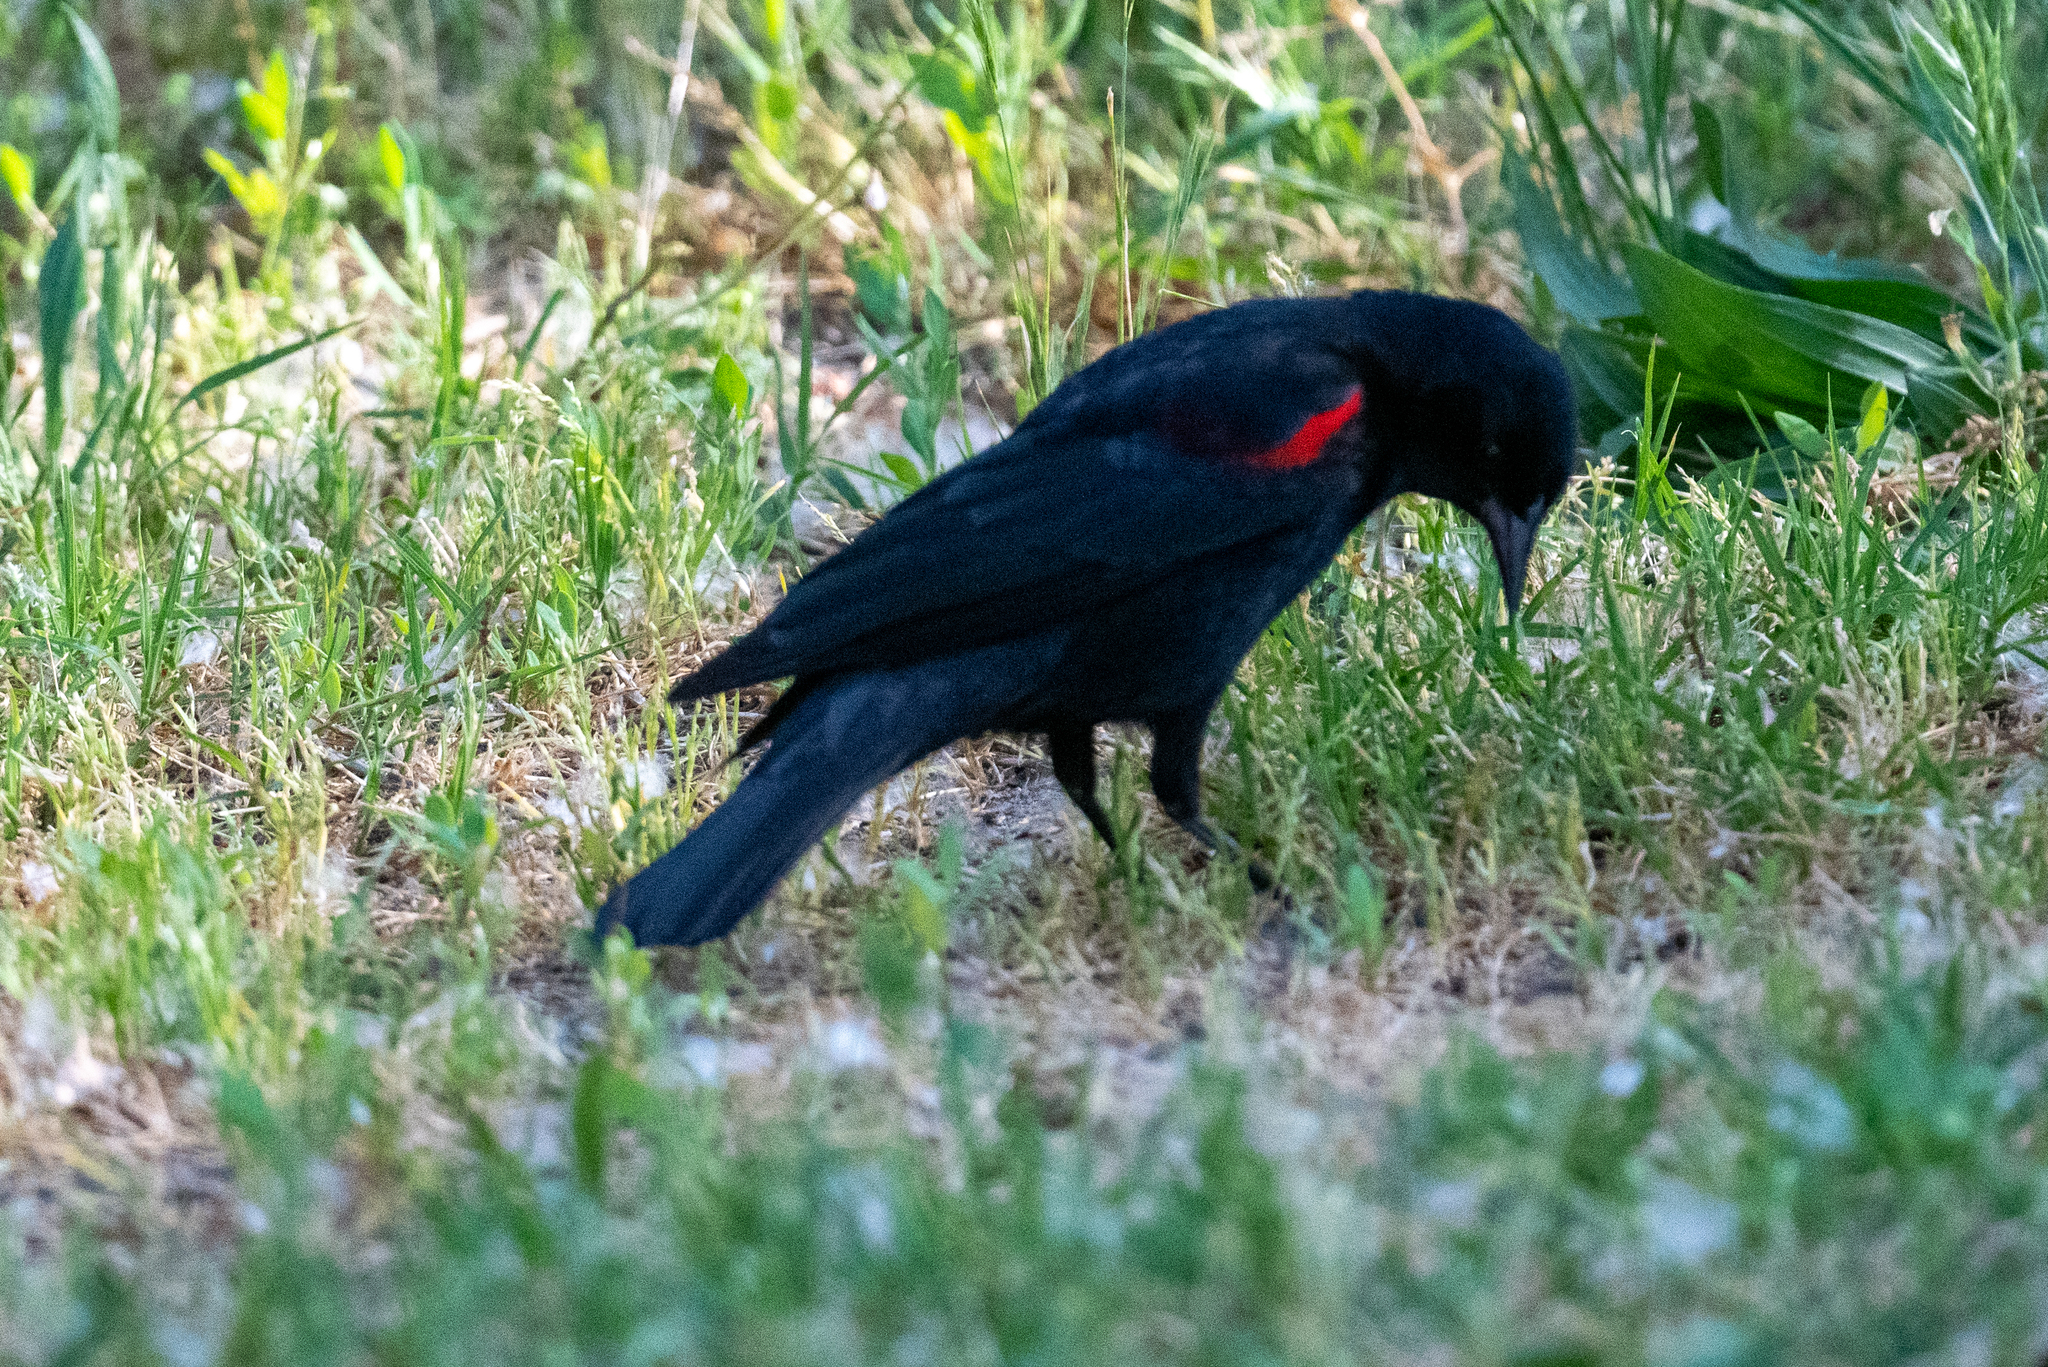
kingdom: Animalia
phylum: Chordata
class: Aves
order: Passeriformes
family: Icteridae
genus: Agelaius
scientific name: Agelaius phoeniceus
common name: Red-winged blackbird
